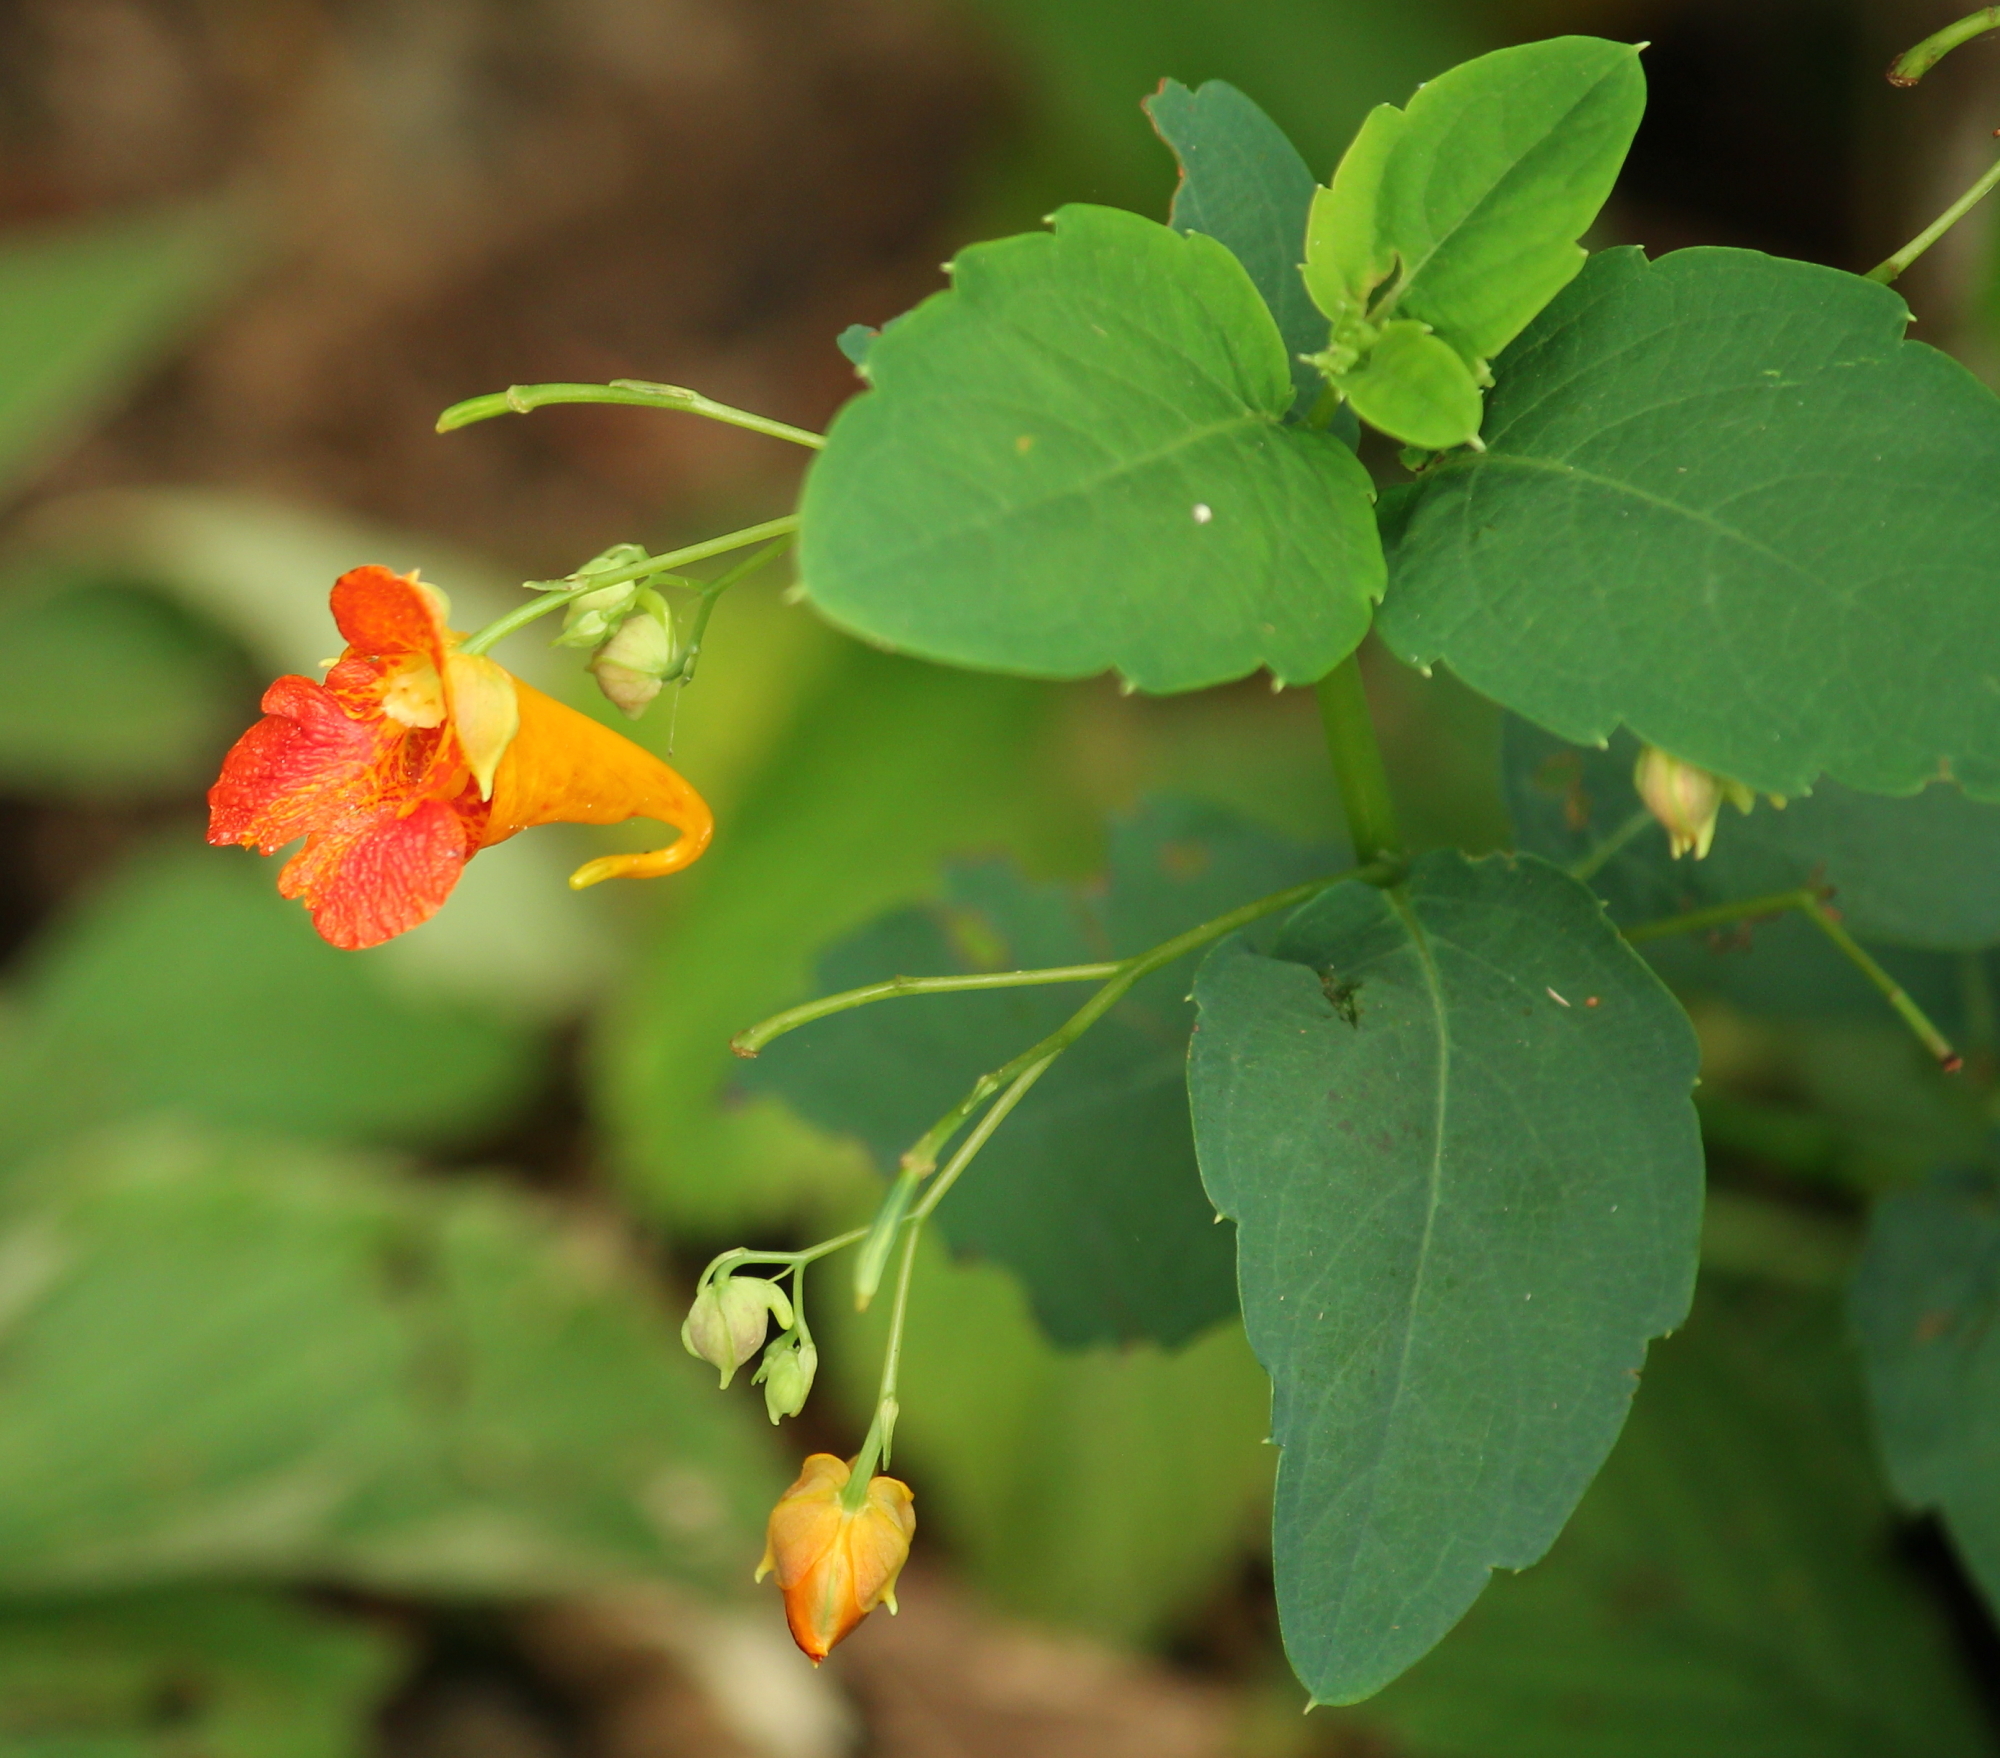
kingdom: Plantae
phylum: Tracheophyta
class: Magnoliopsida
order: Ericales
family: Balsaminaceae
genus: Impatiens
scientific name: Impatiens capensis
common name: Orange balsam
